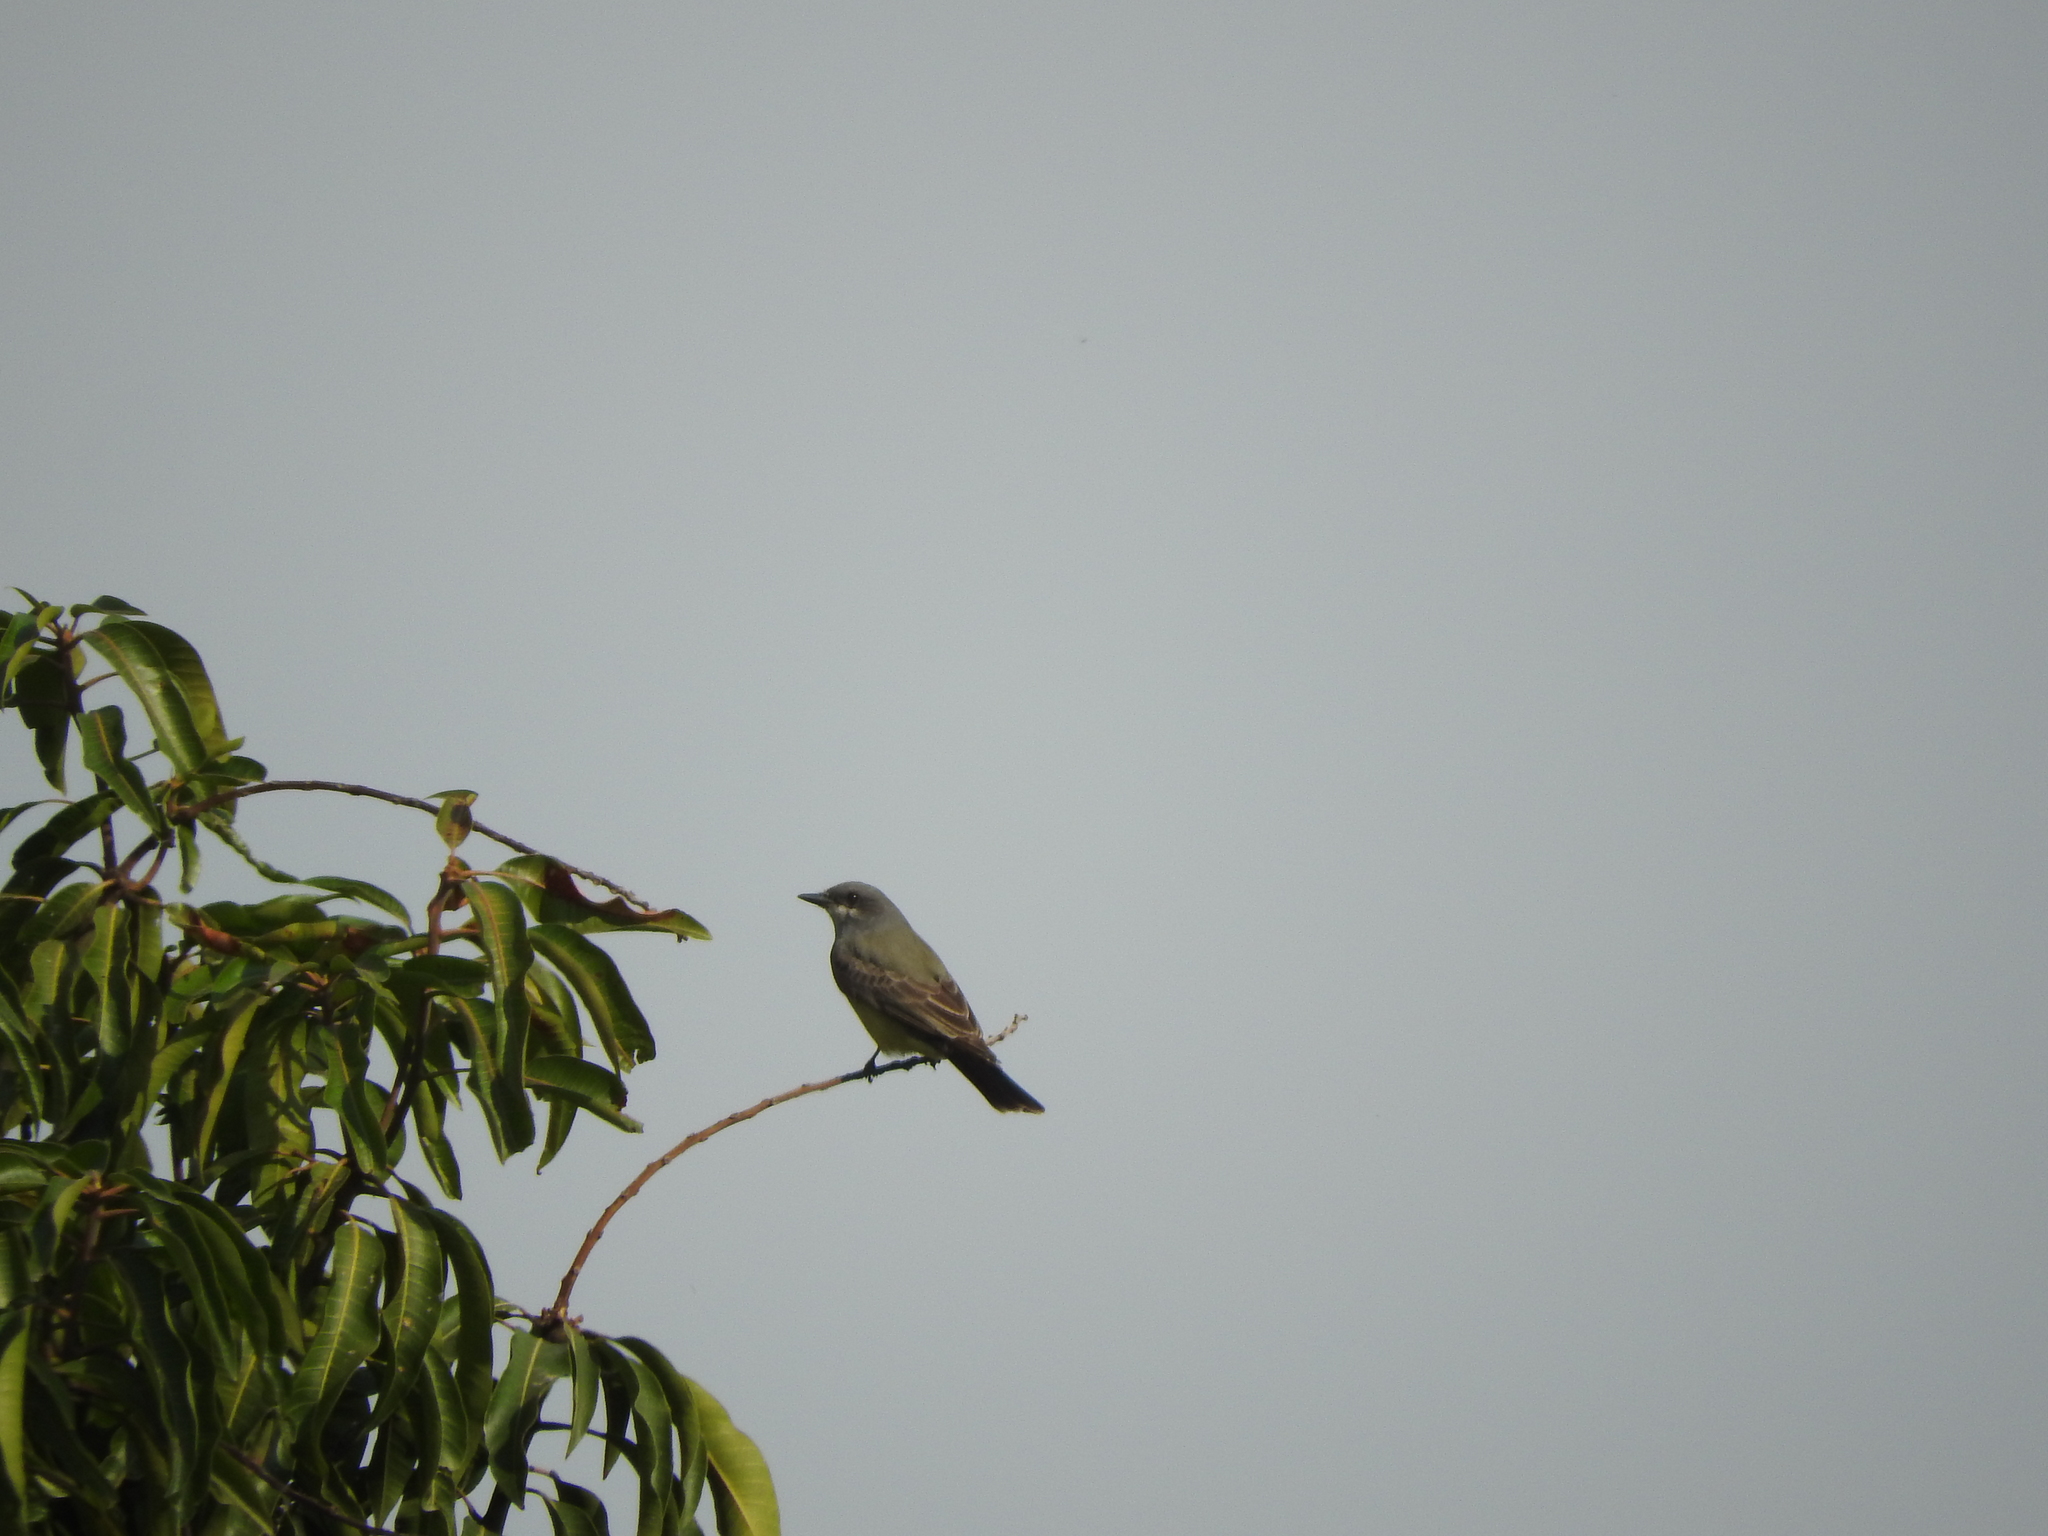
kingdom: Animalia
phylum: Chordata
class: Aves
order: Passeriformes
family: Tyrannidae
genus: Tyrannus
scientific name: Tyrannus vociferans
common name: Cassin's kingbird
